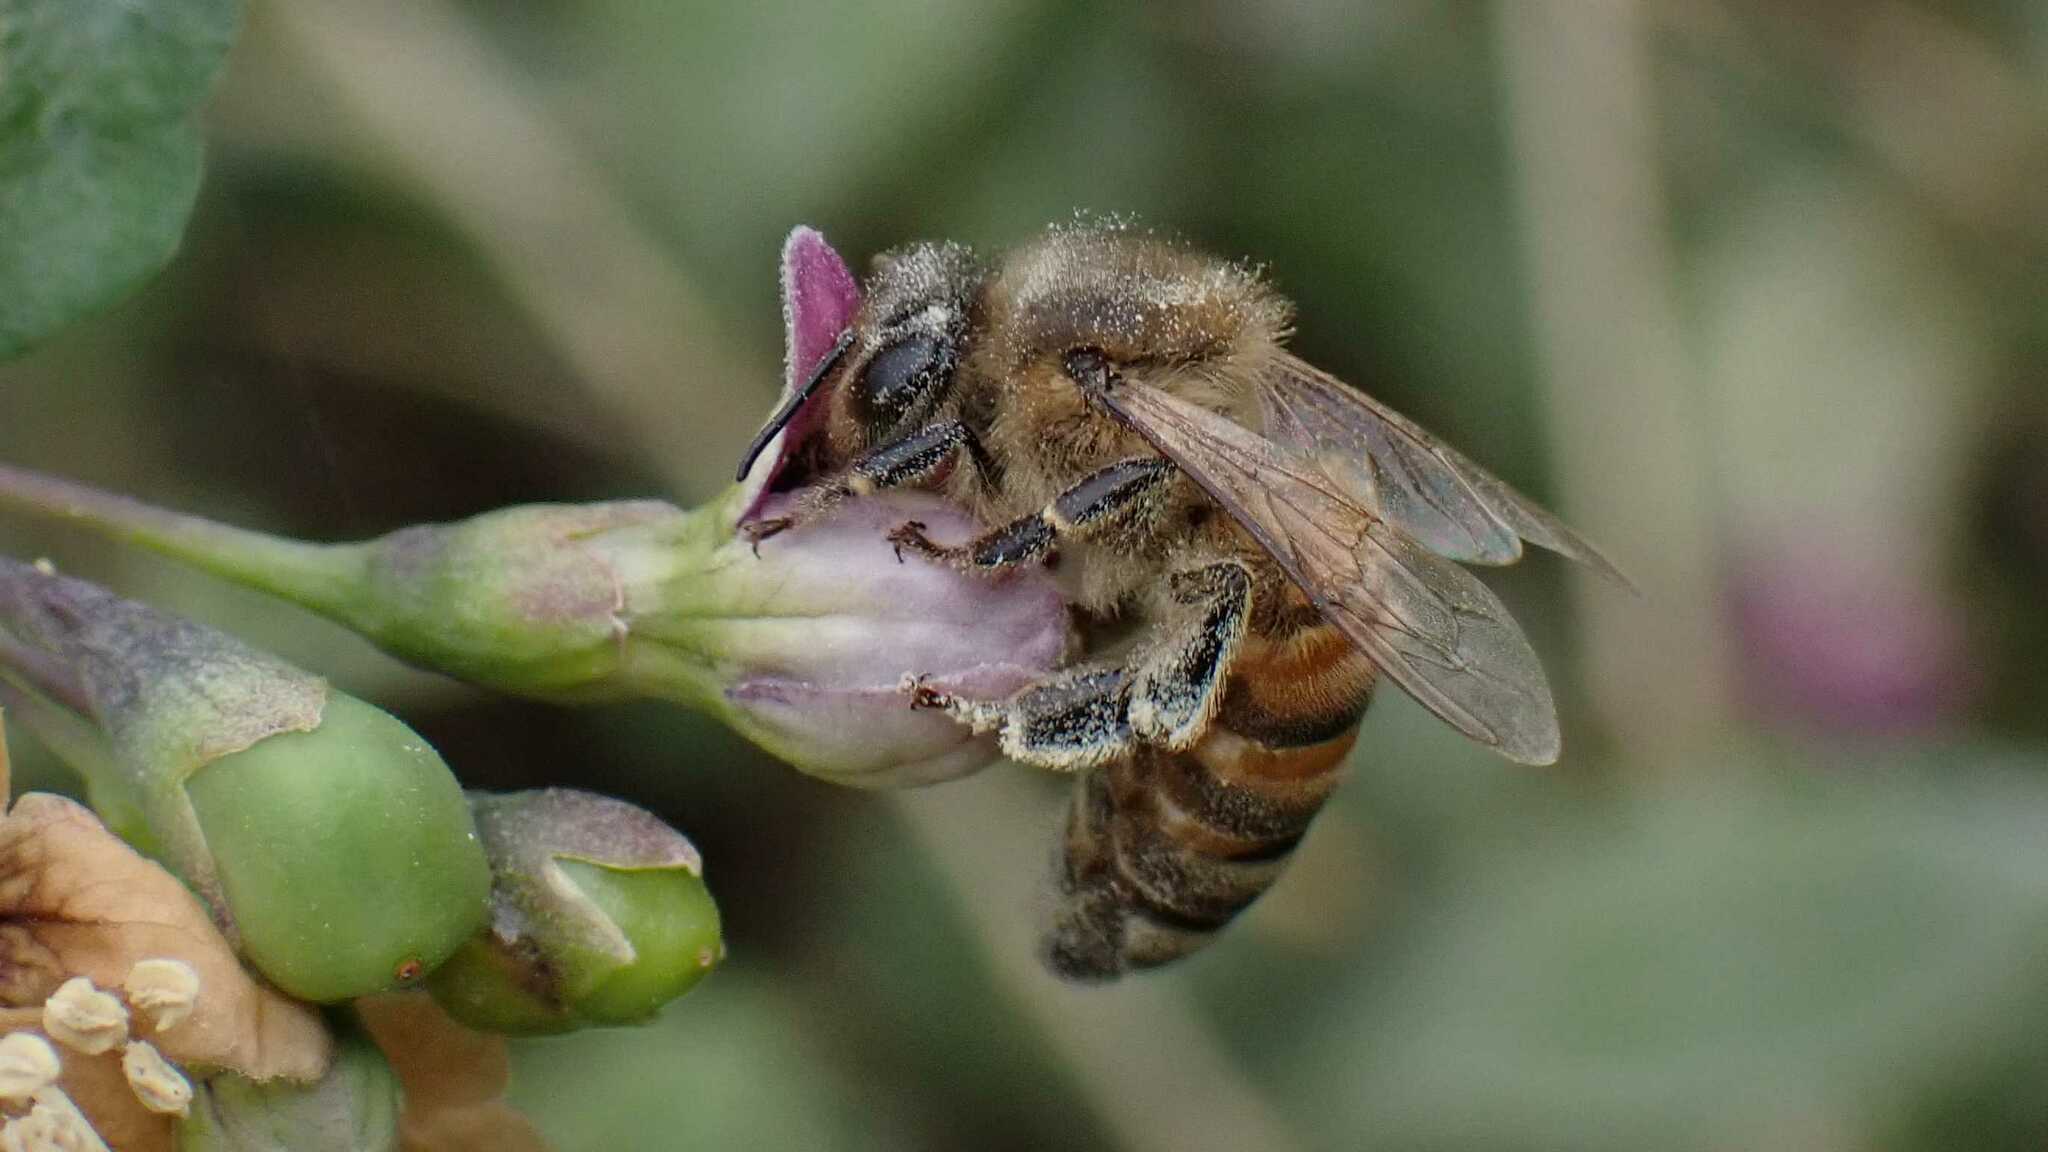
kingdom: Animalia
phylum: Arthropoda
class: Insecta
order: Hymenoptera
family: Apidae
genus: Apis
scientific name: Apis mellifera
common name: Honey bee
